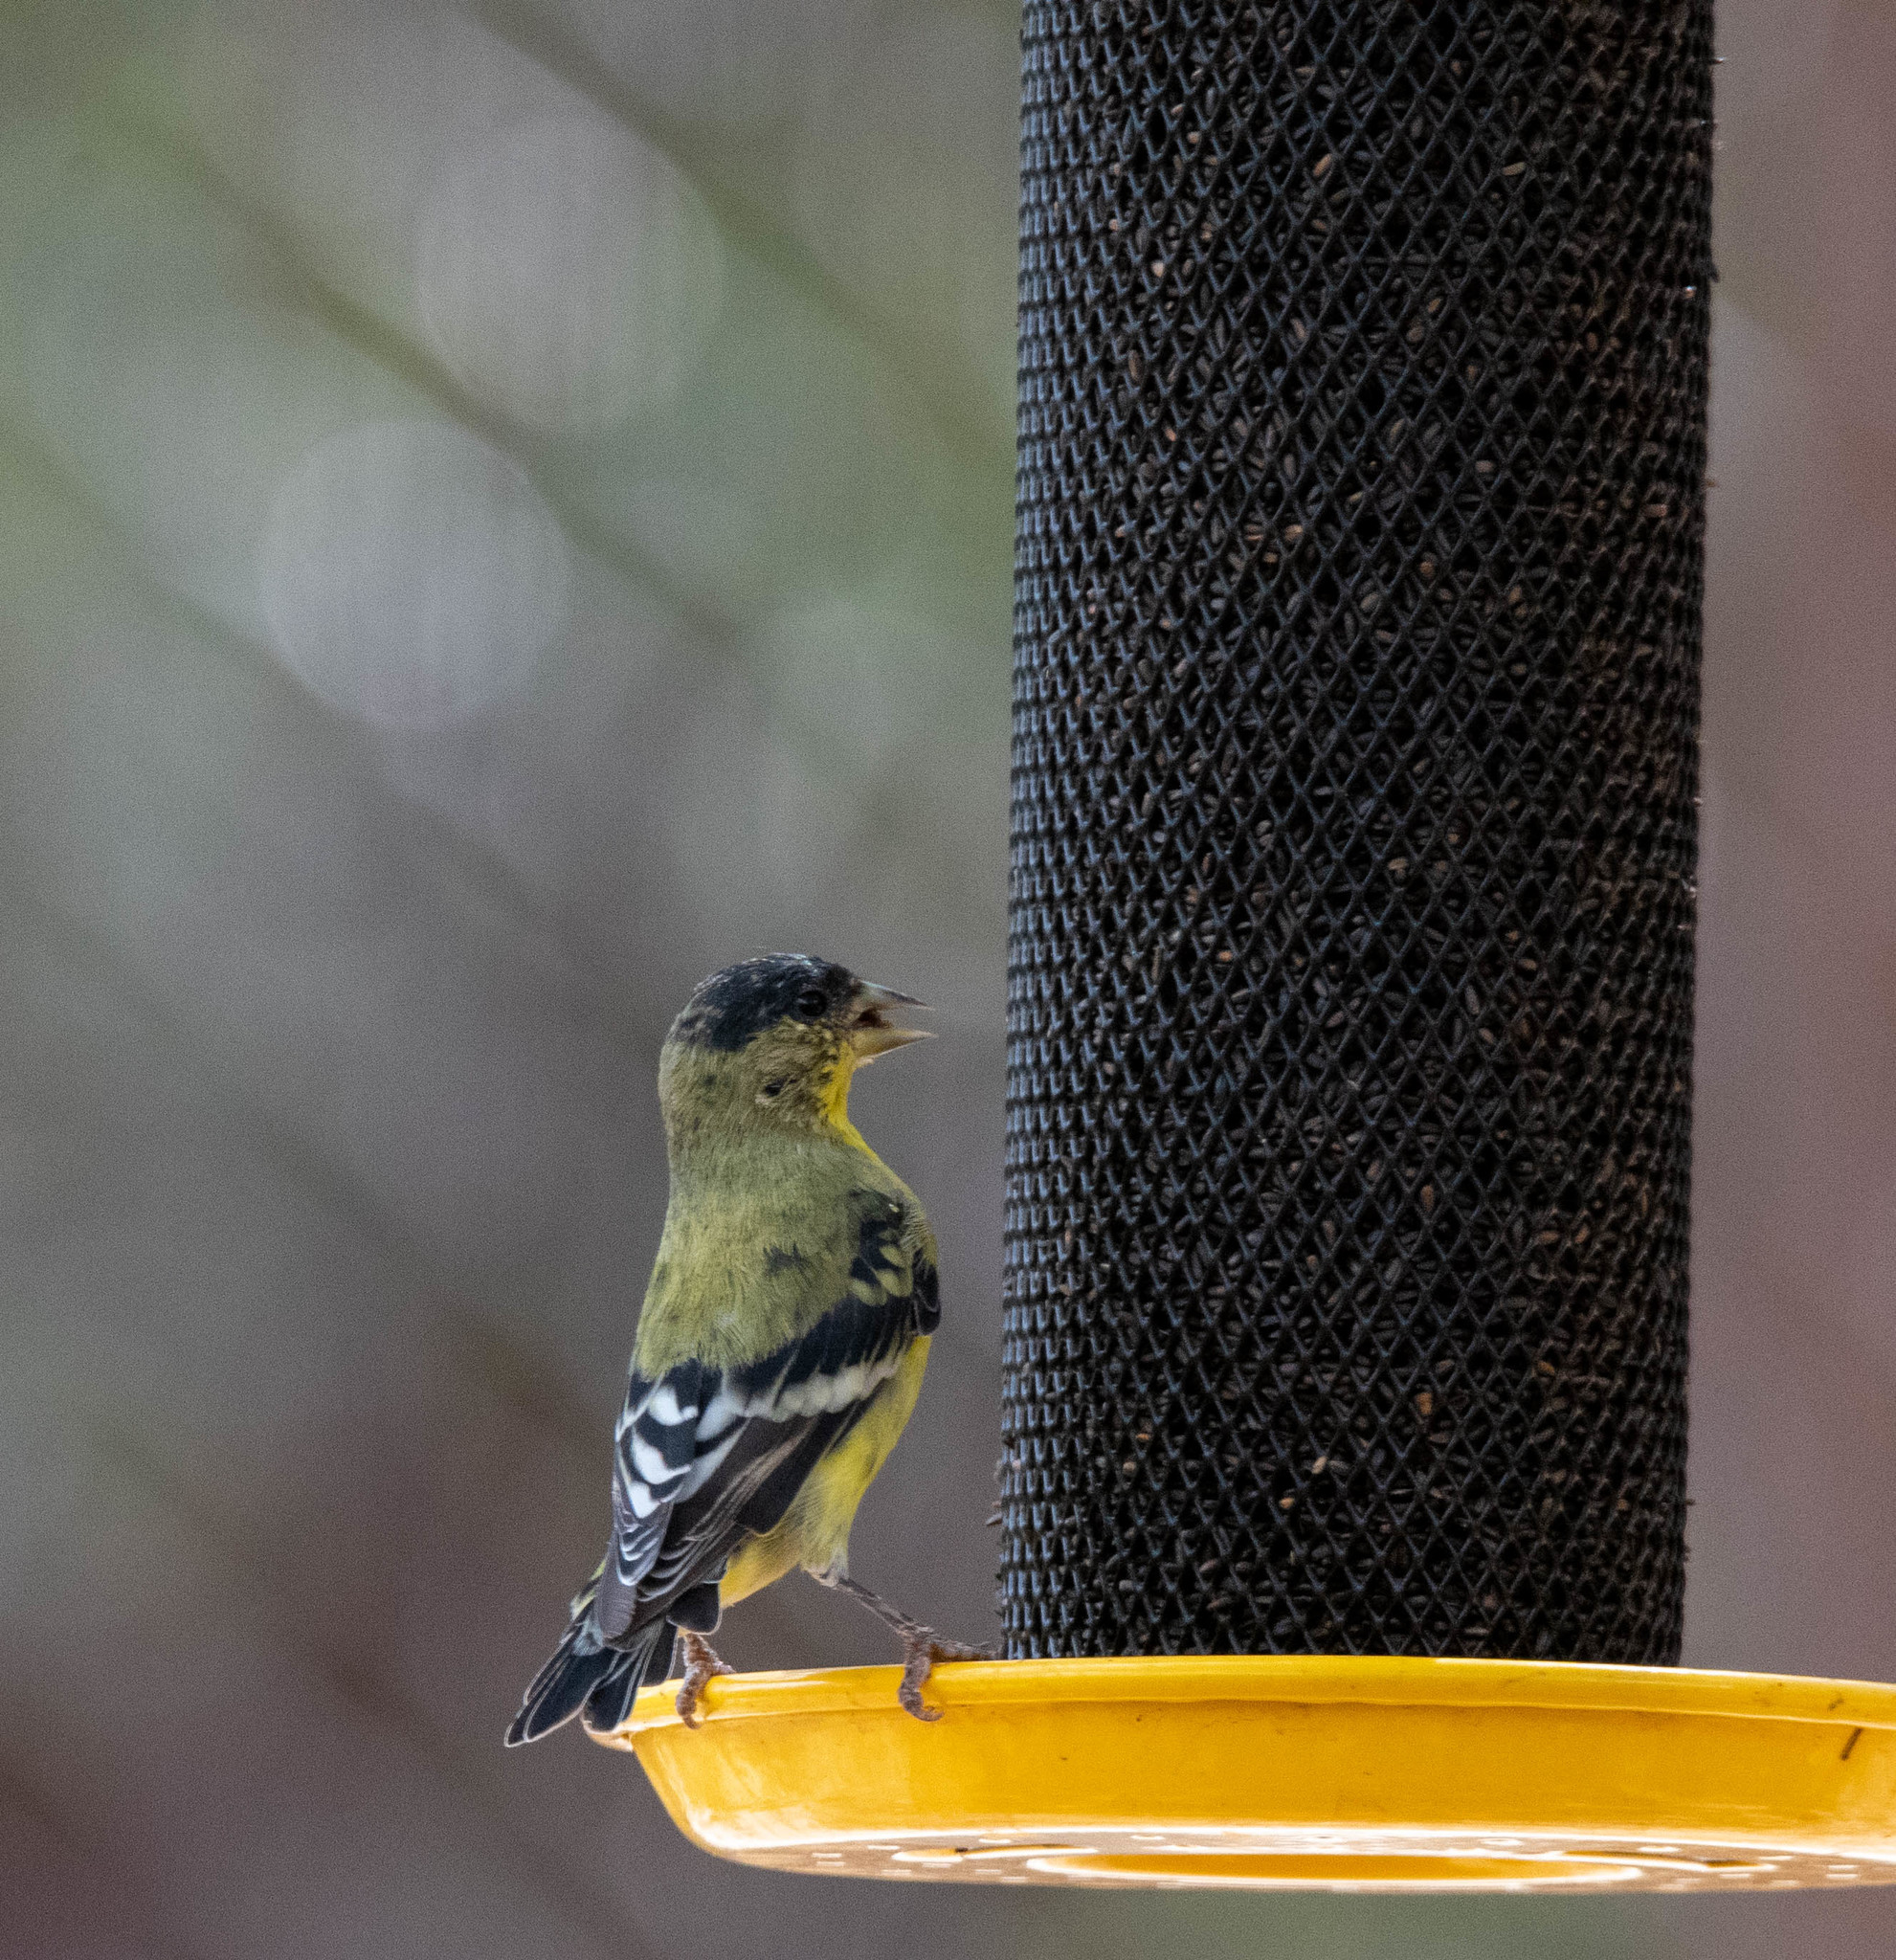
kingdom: Animalia
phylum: Chordata
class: Aves
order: Passeriformes
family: Fringillidae
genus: Spinus
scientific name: Spinus psaltria
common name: Lesser goldfinch
